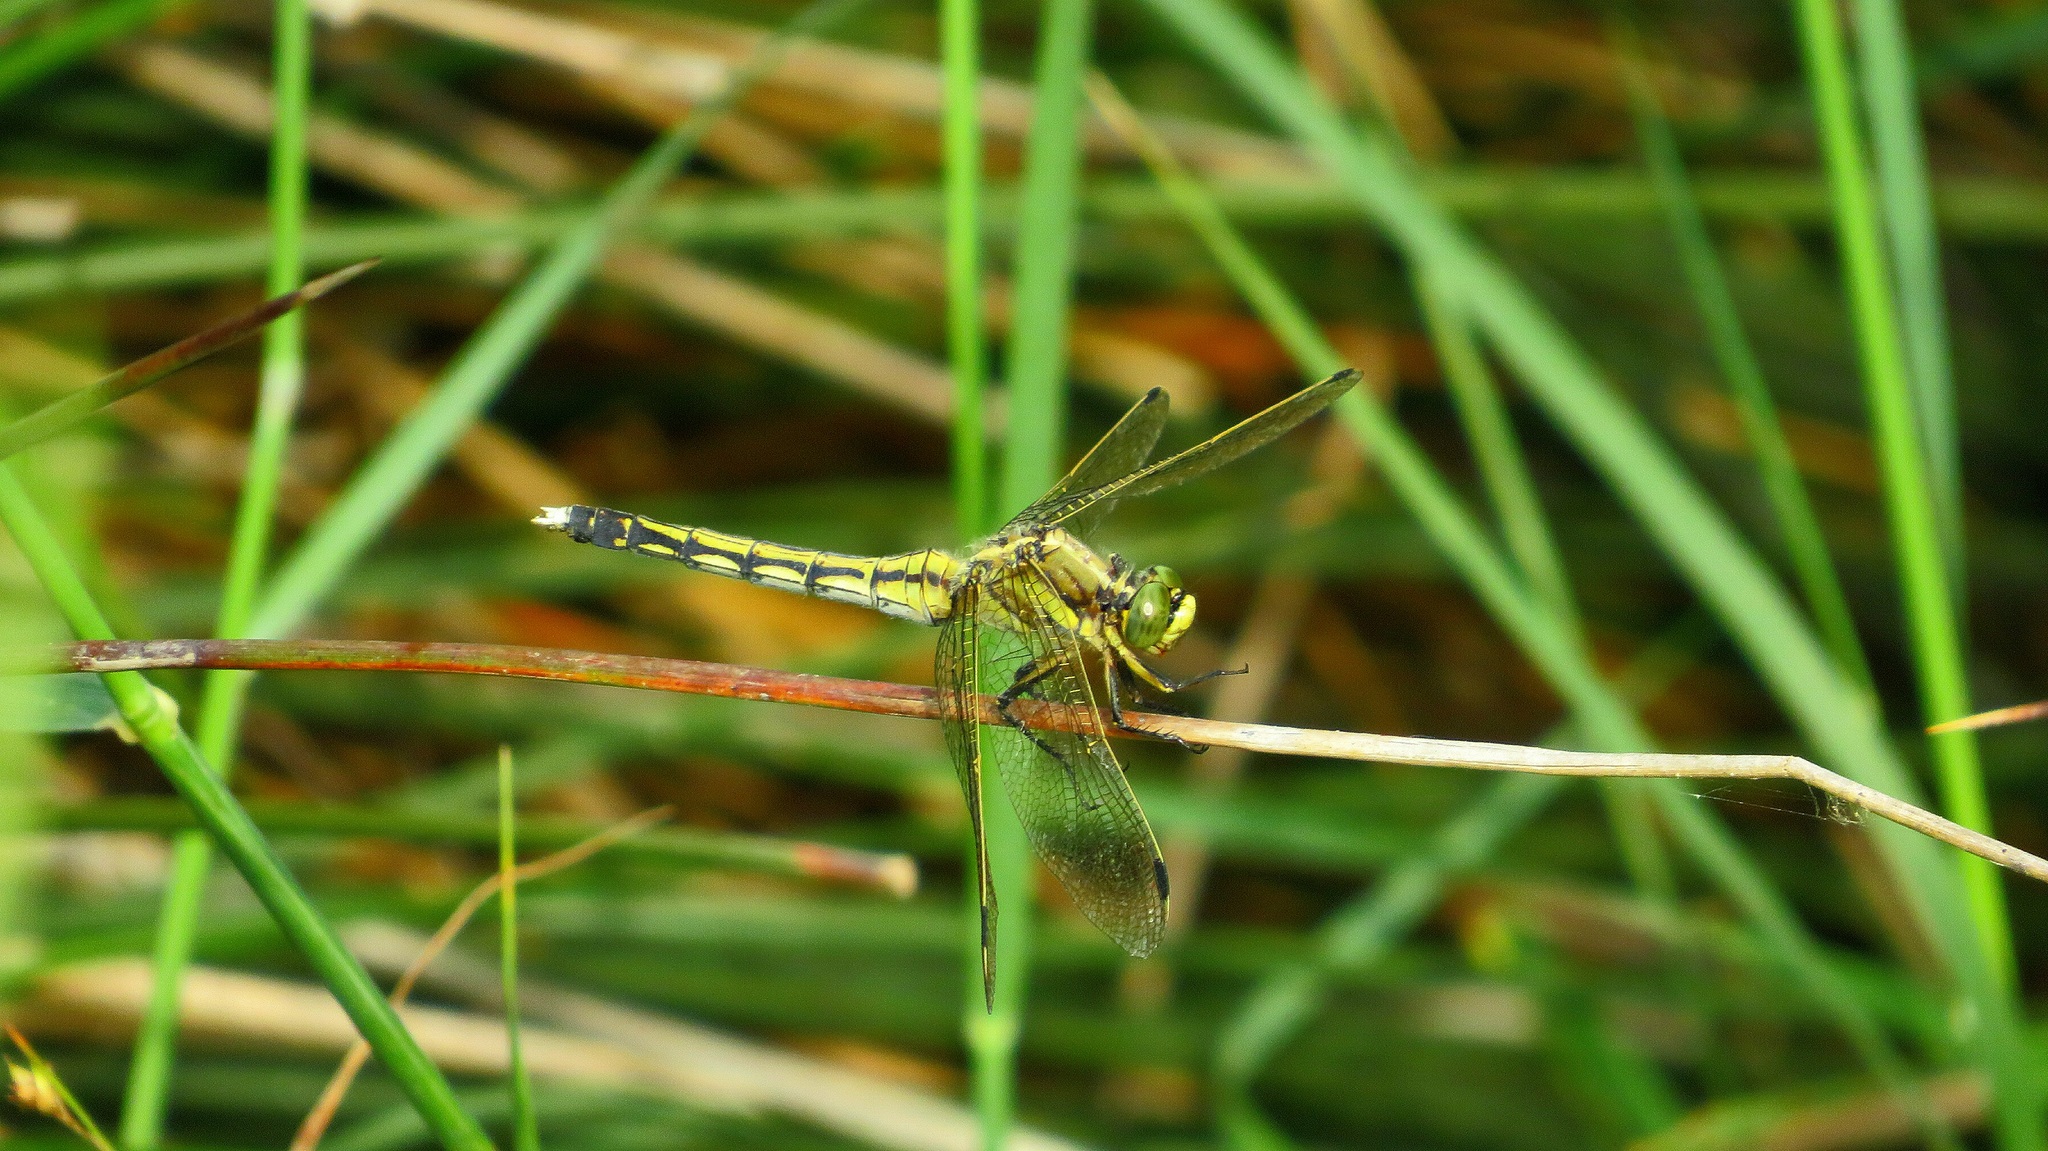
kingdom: Animalia
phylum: Arthropoda
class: Insecta
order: Odonata
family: Libellulidae
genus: Orthetrum
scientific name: Orthetrum albistylum
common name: White-tailed skimmer
